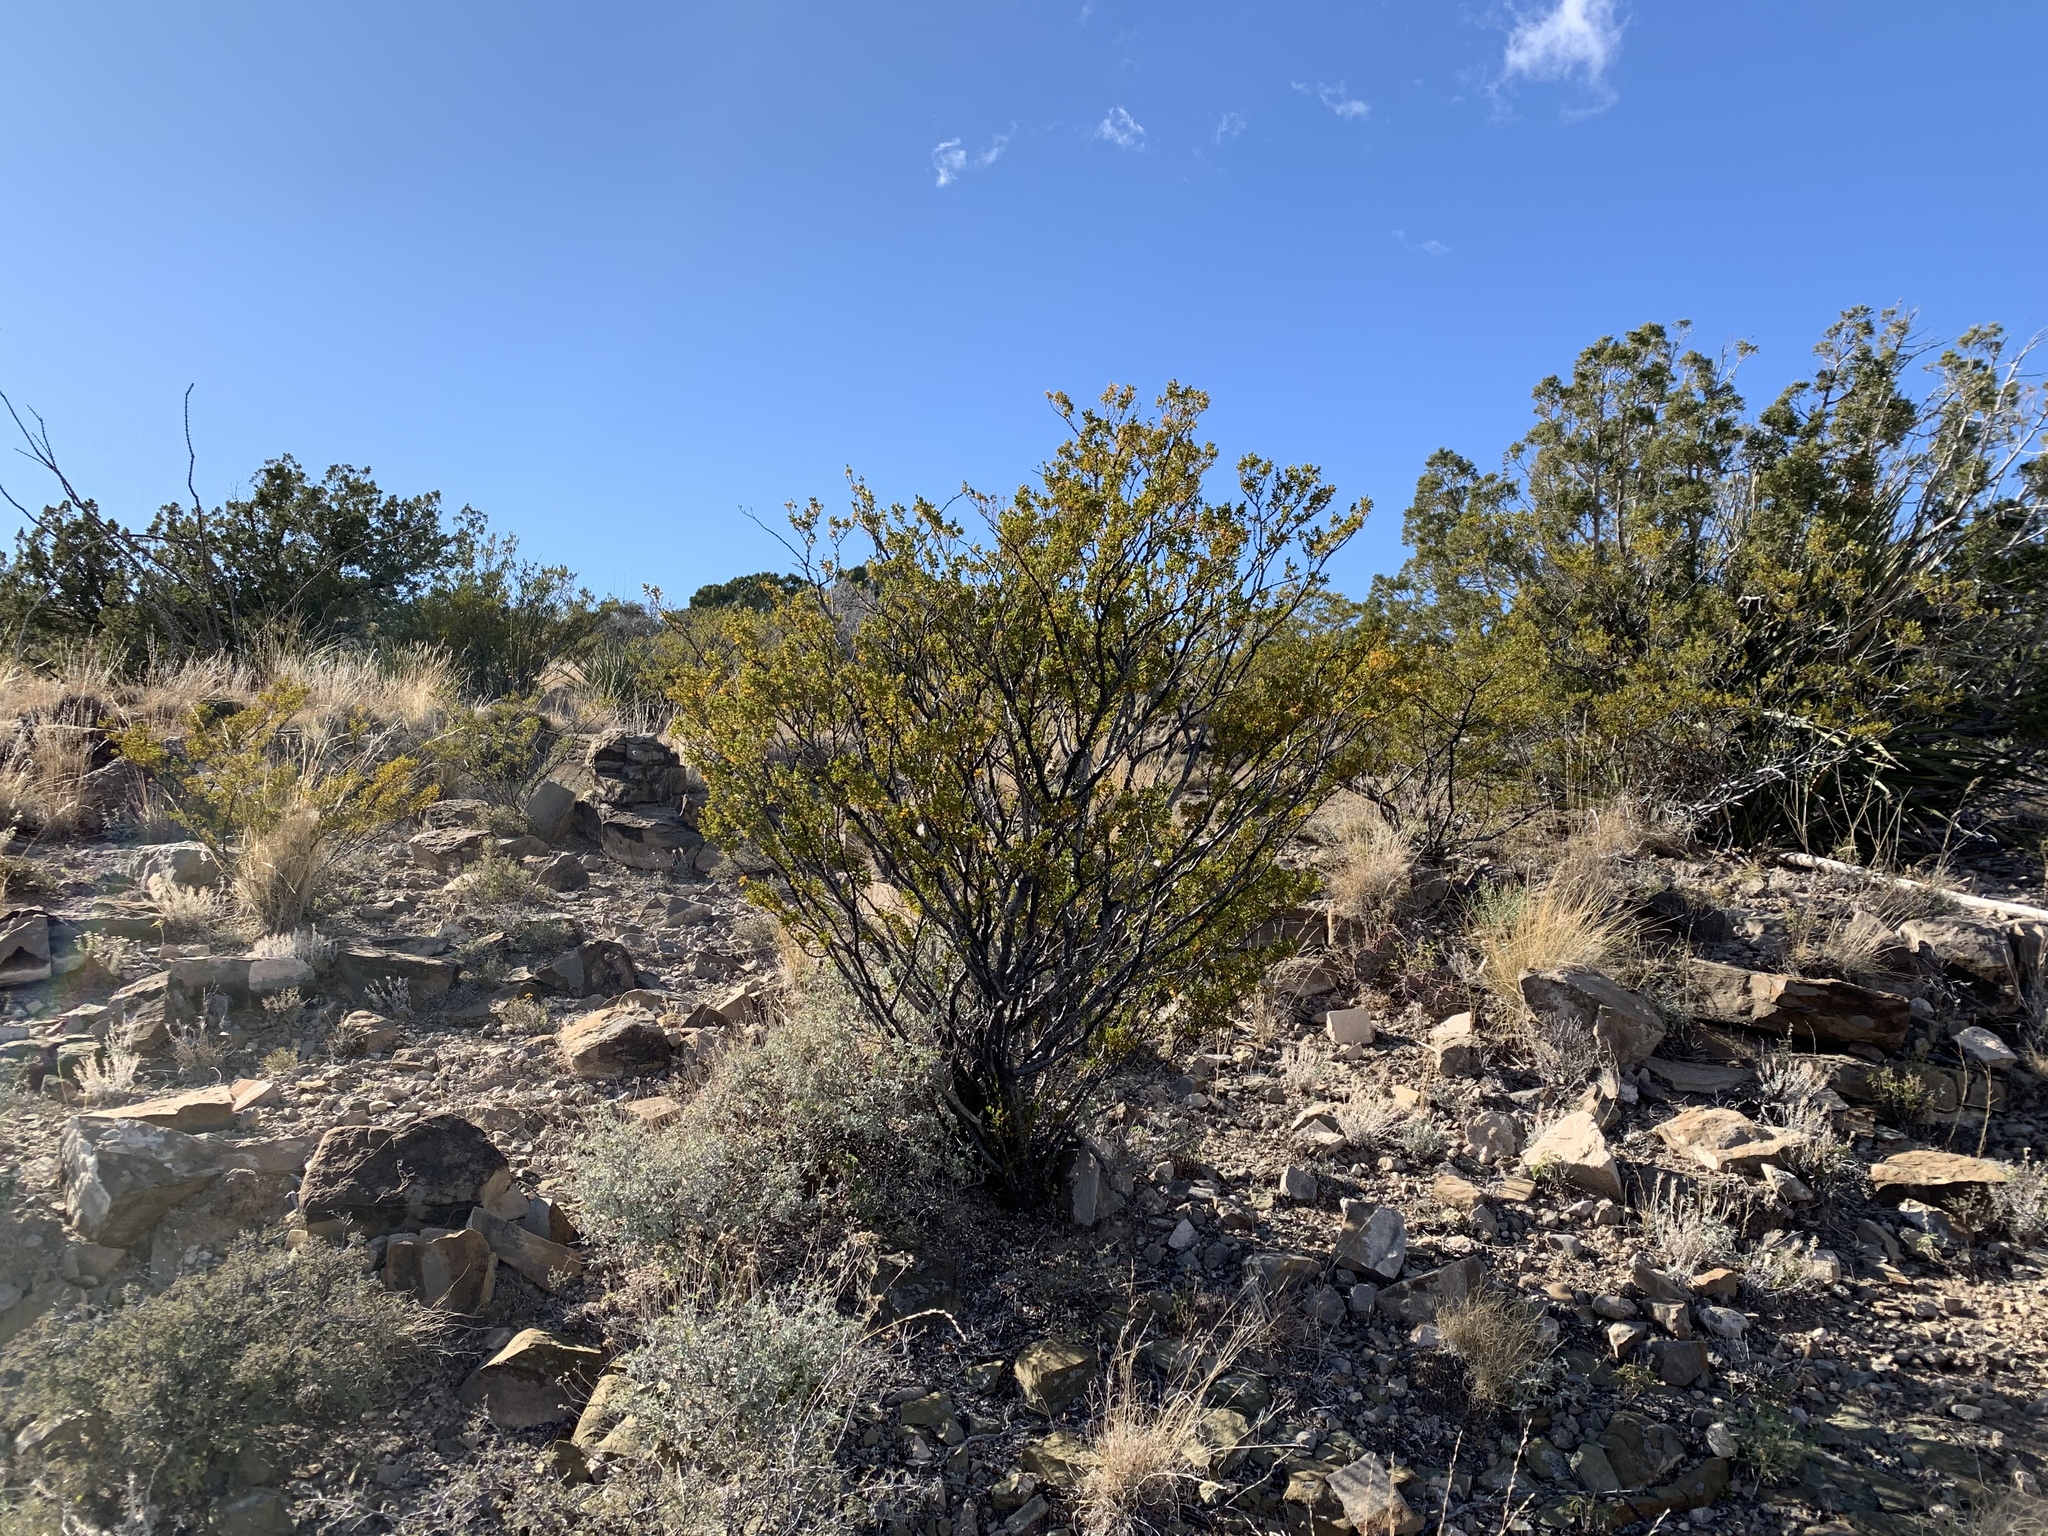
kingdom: Plantae
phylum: Tracheophyta
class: Magnoliopsida
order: Zygophyllales
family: Zygophyllaceae
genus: Larrea
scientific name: Larrea tridentata
